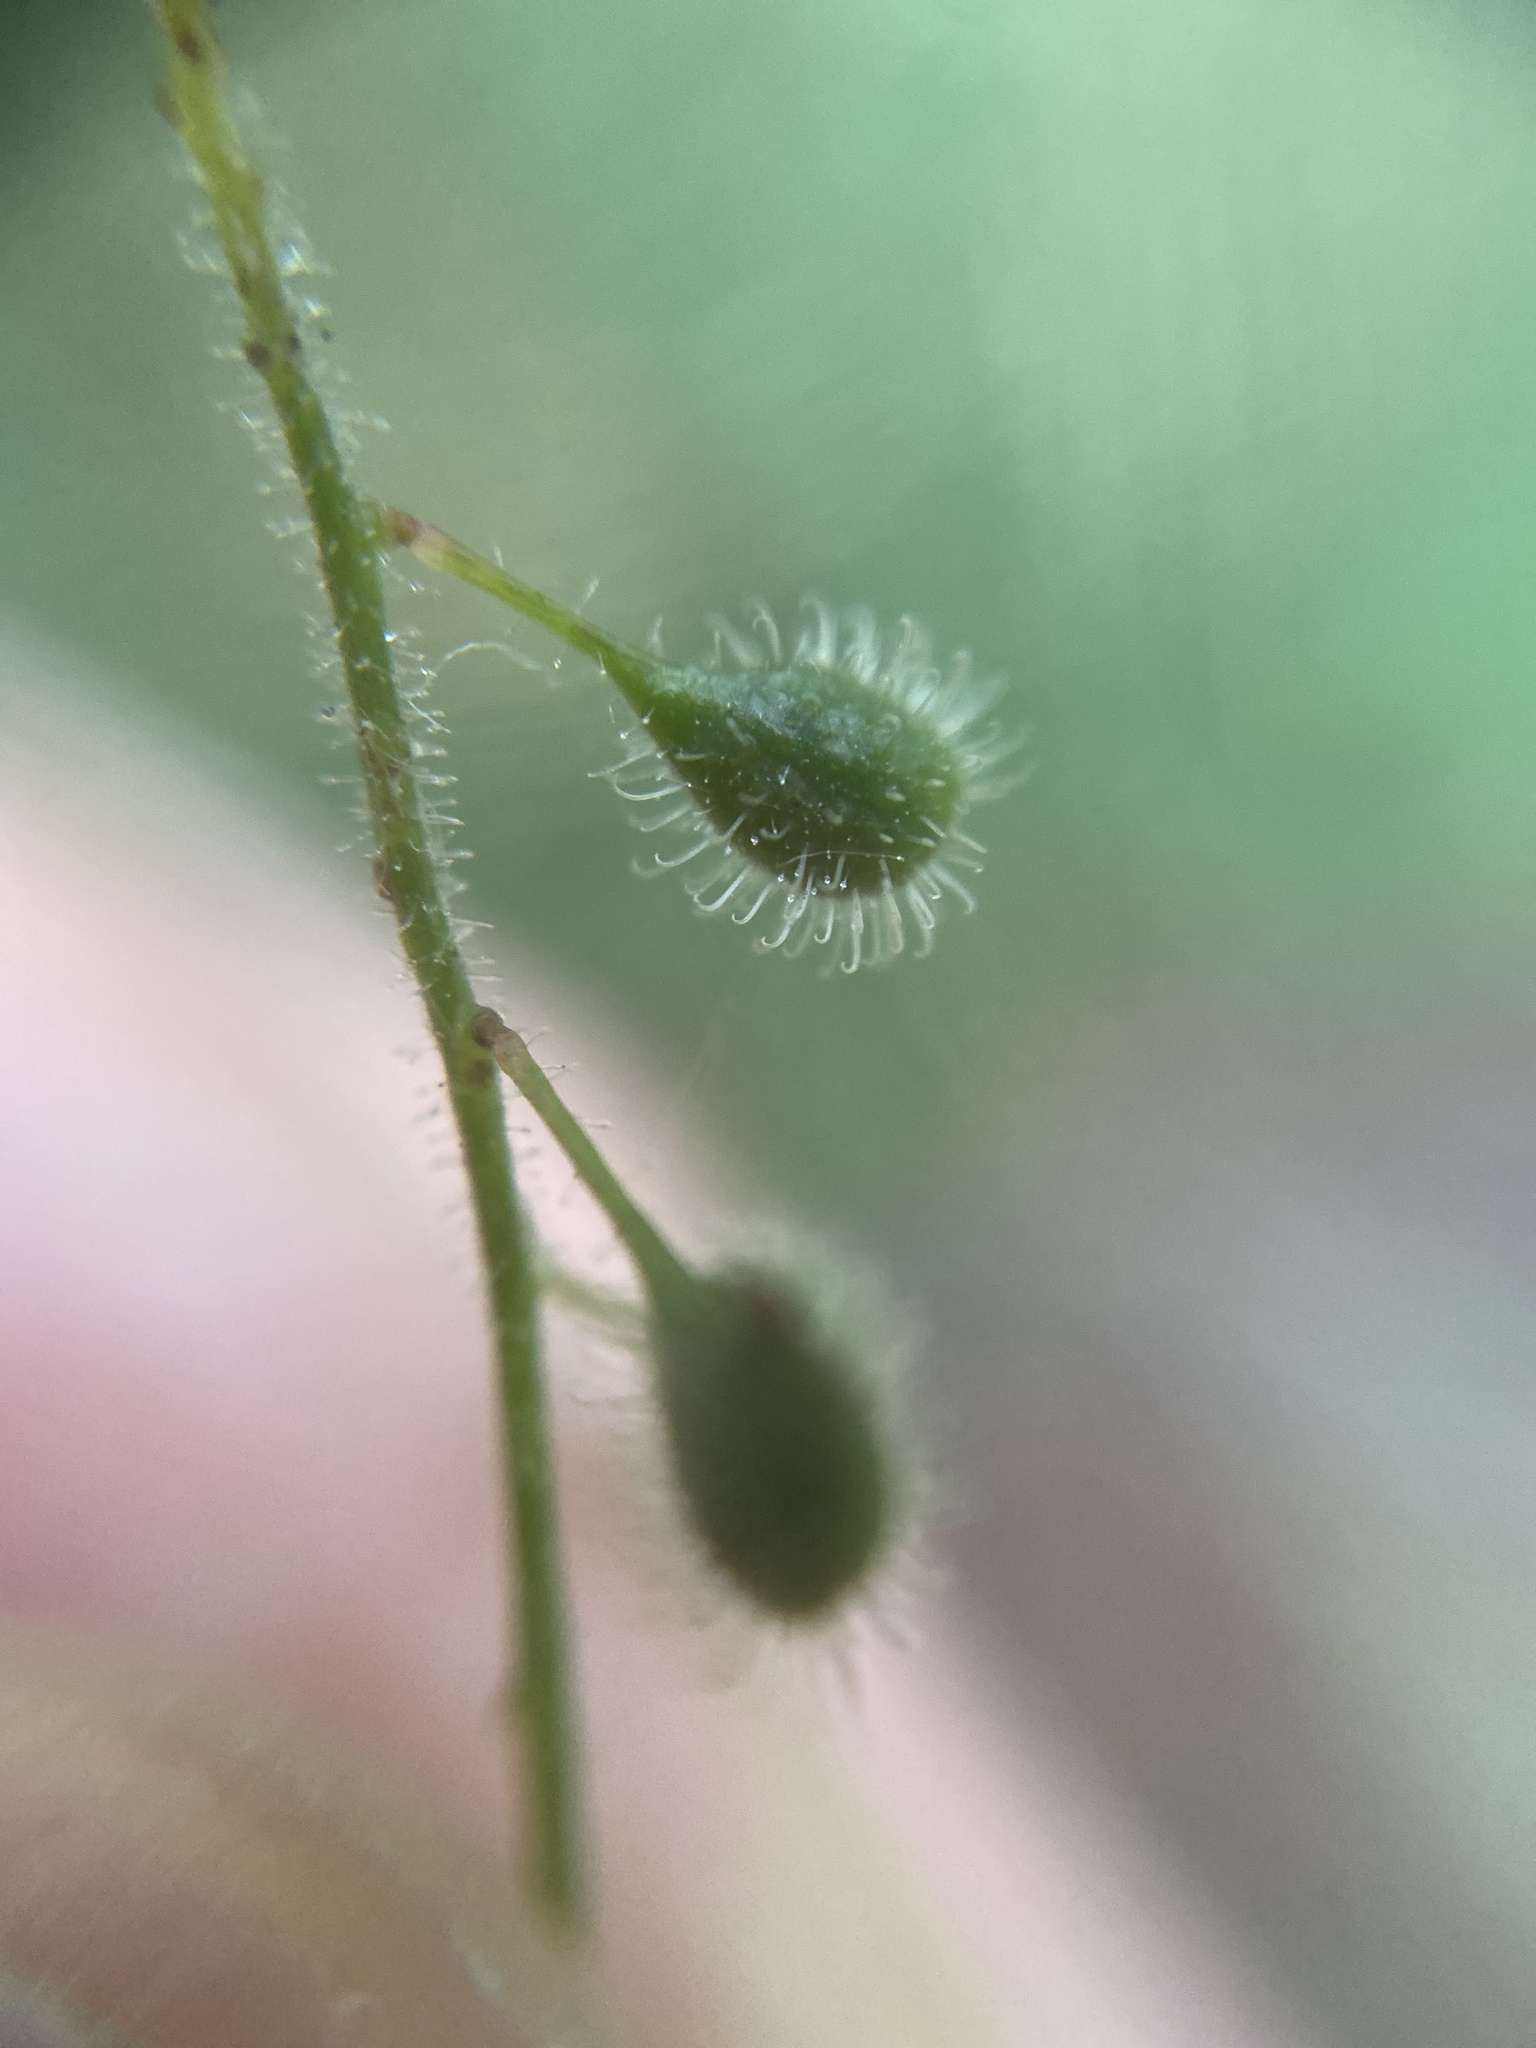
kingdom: Plantae
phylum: Tracheophyta
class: Magnoliopsida
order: Myrtales
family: Onagraceae
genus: Circaea
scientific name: Circaea lutetiana
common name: Enchanter's-nightshade
